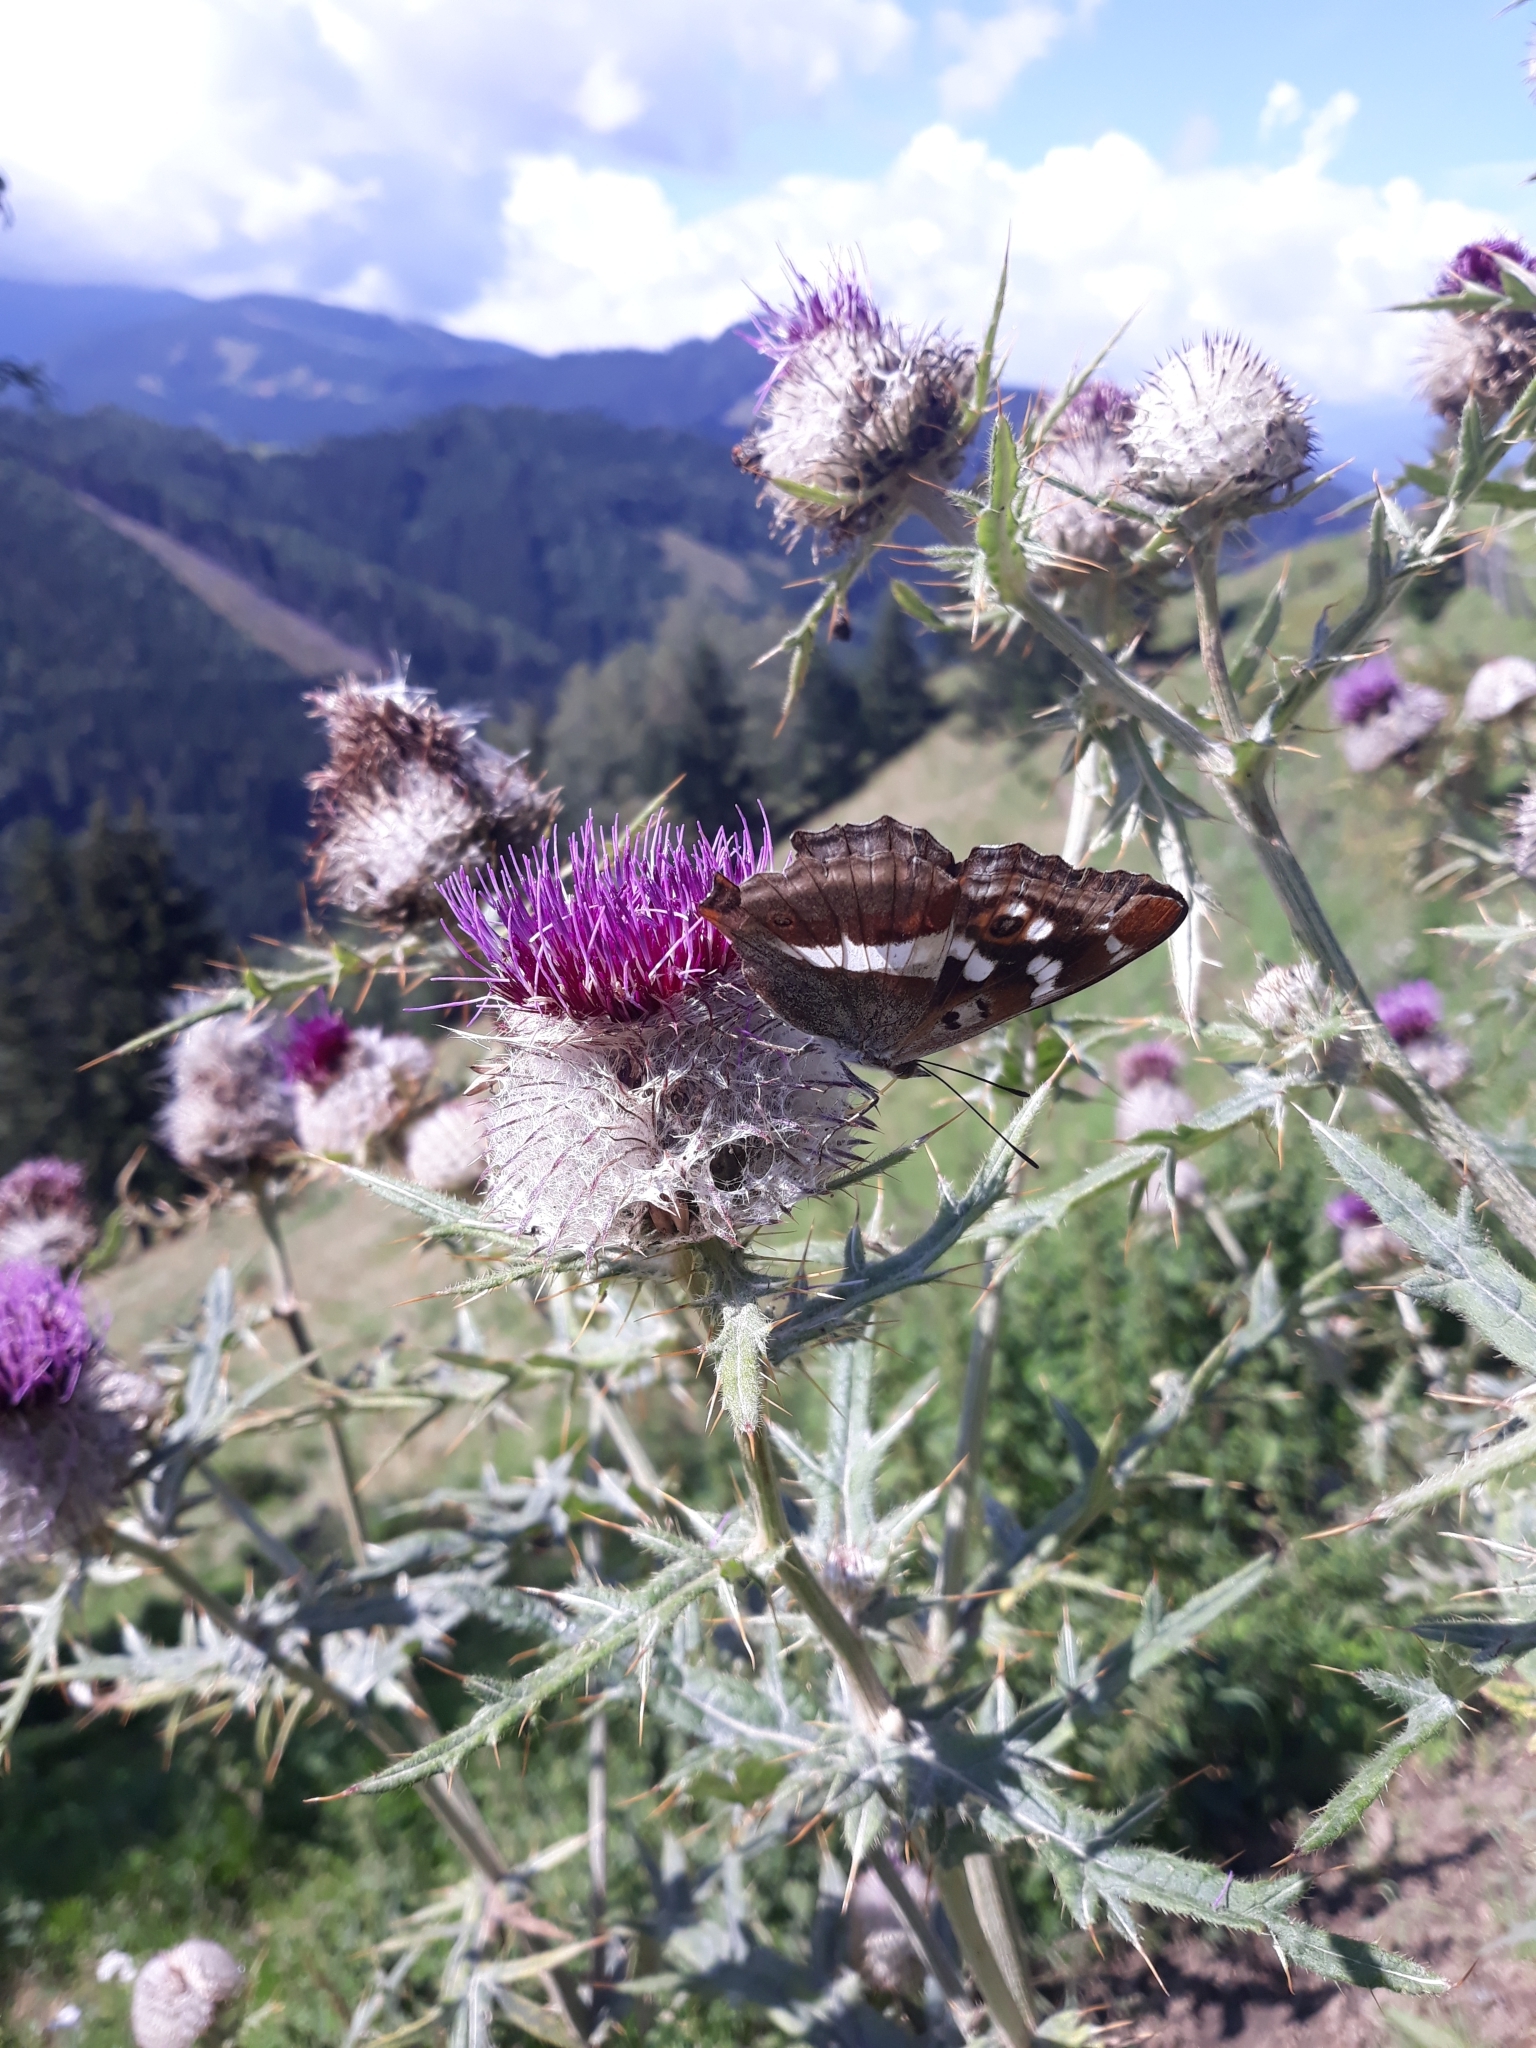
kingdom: Animalia
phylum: Arthropoda
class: Insecta
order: Lepidoptera
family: Nymphalidae
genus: Apatura
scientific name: Apatura iris
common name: Purple emperor
